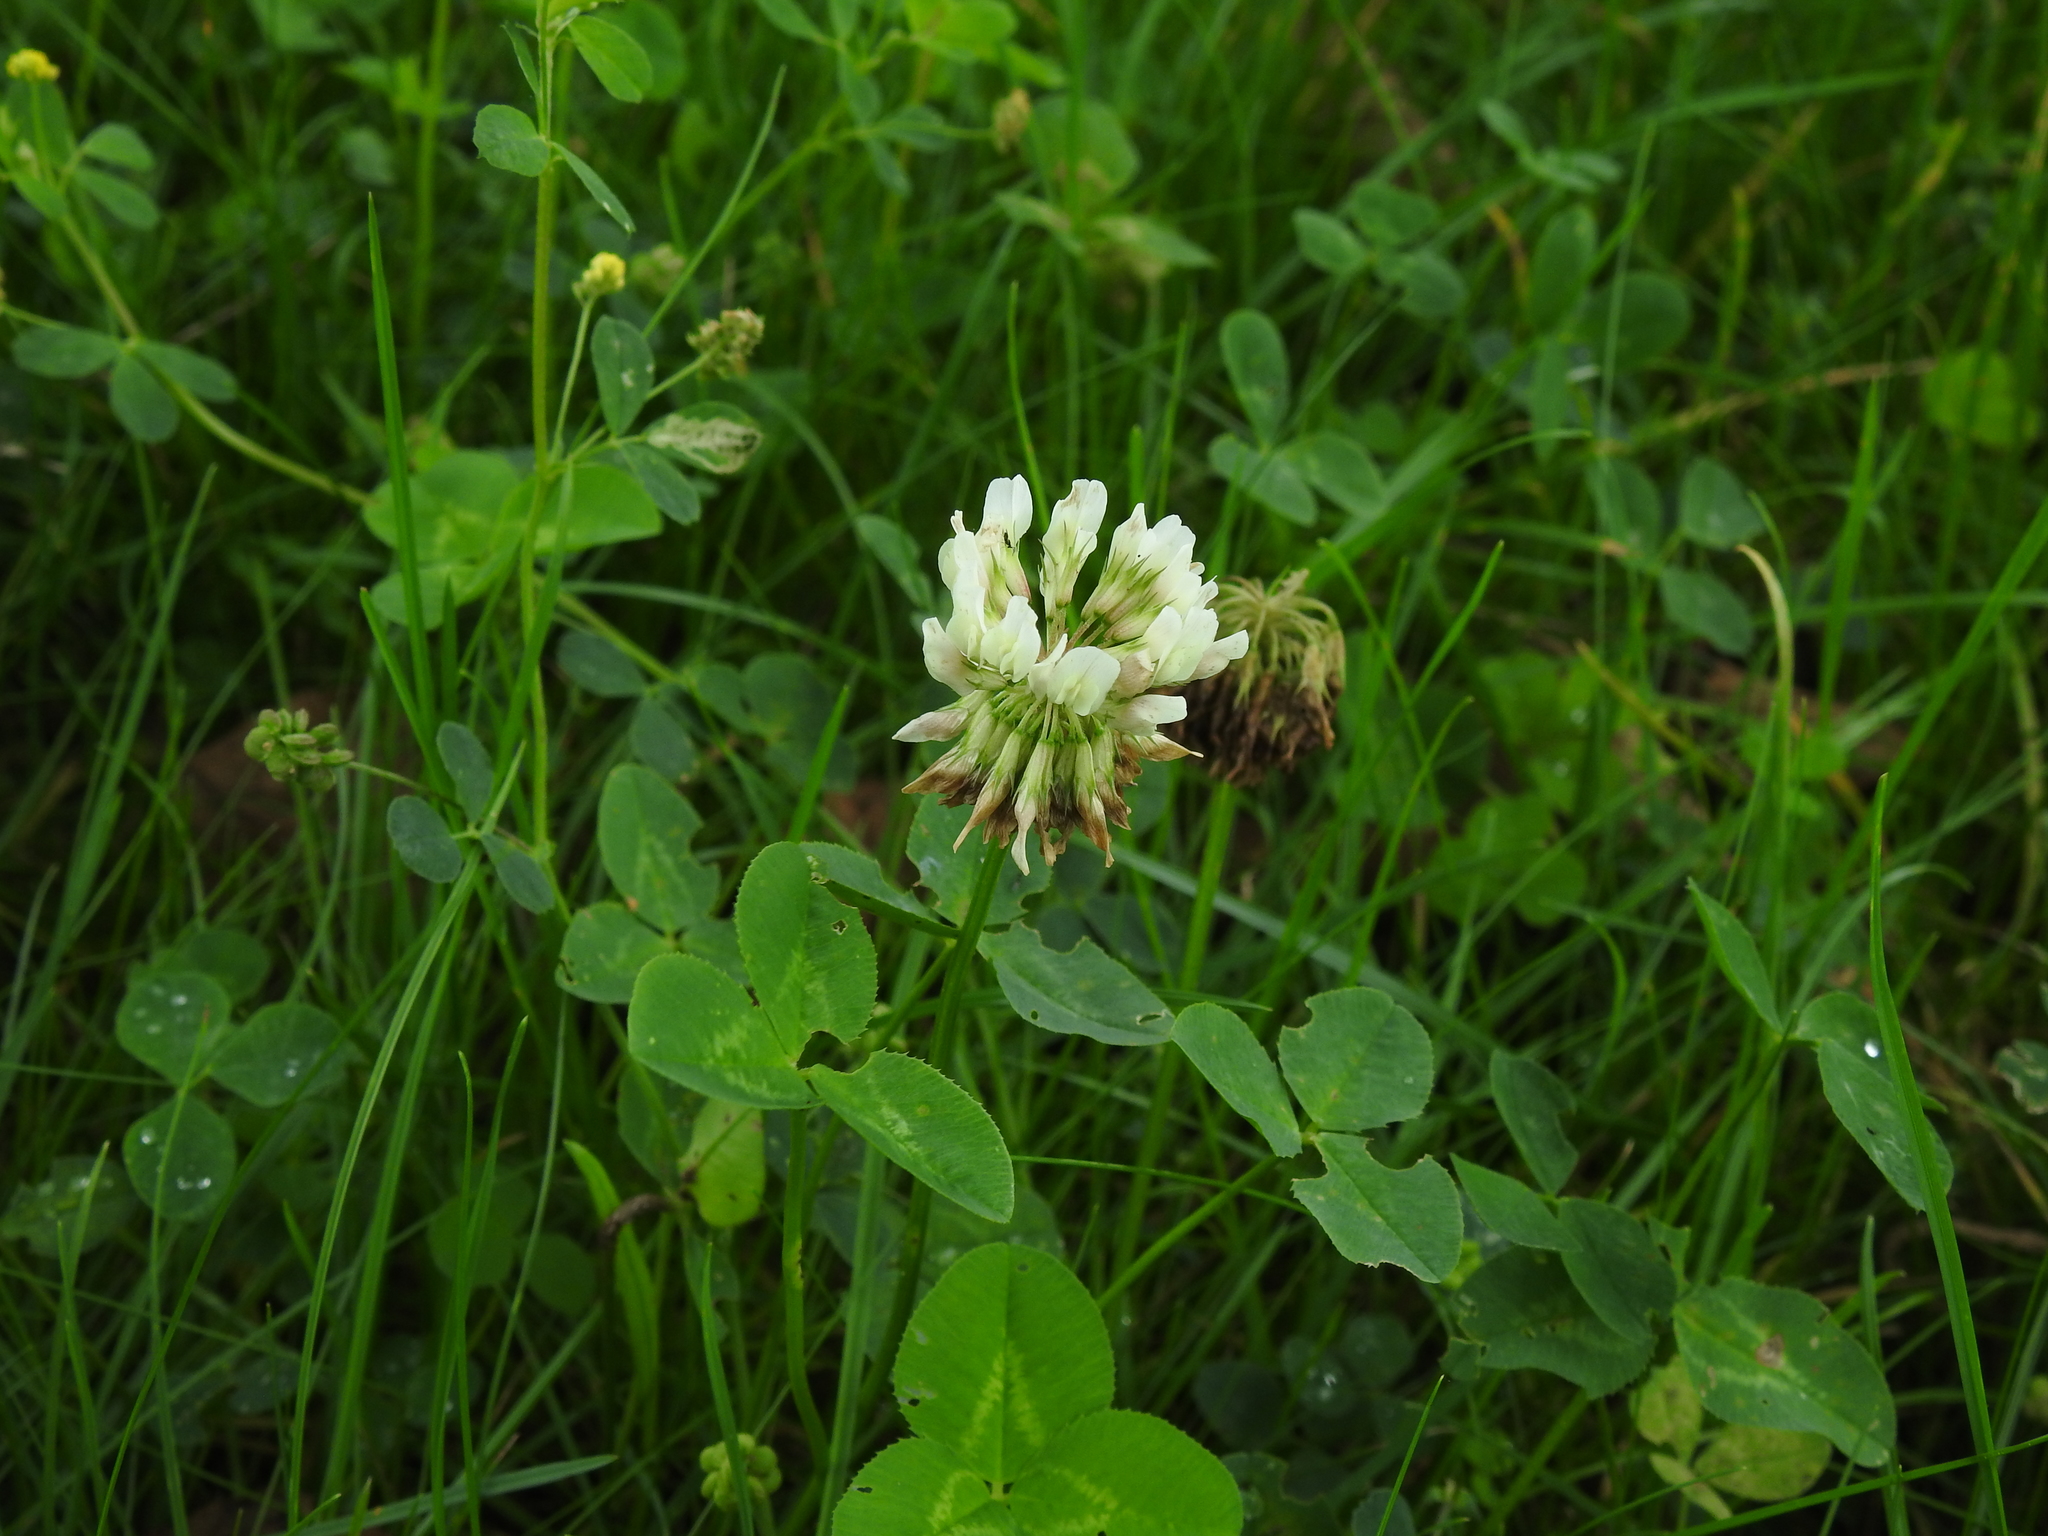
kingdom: Plantae
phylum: Tracheophyta
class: Magnoliopsida
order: Fabales
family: Fabaceae
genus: Trifolium
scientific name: Trifolium repens
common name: White clover
